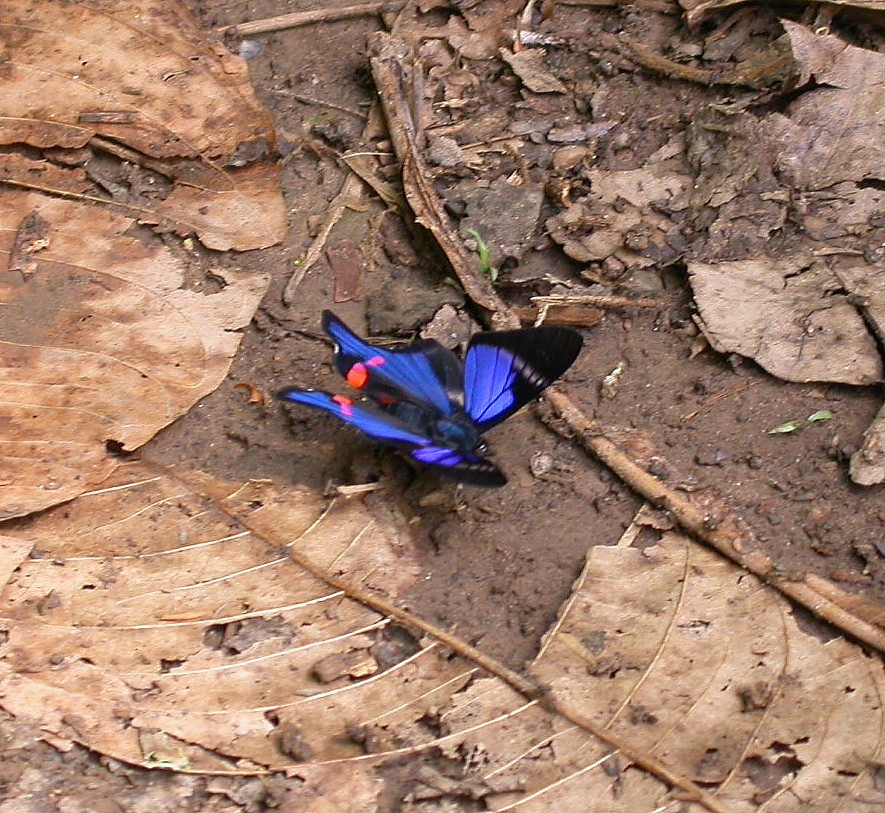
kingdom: Animalia
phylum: Arthropoda
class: Insecta
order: Lepidoptera
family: Riodinidae
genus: Rhetus
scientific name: Rhetus periander
